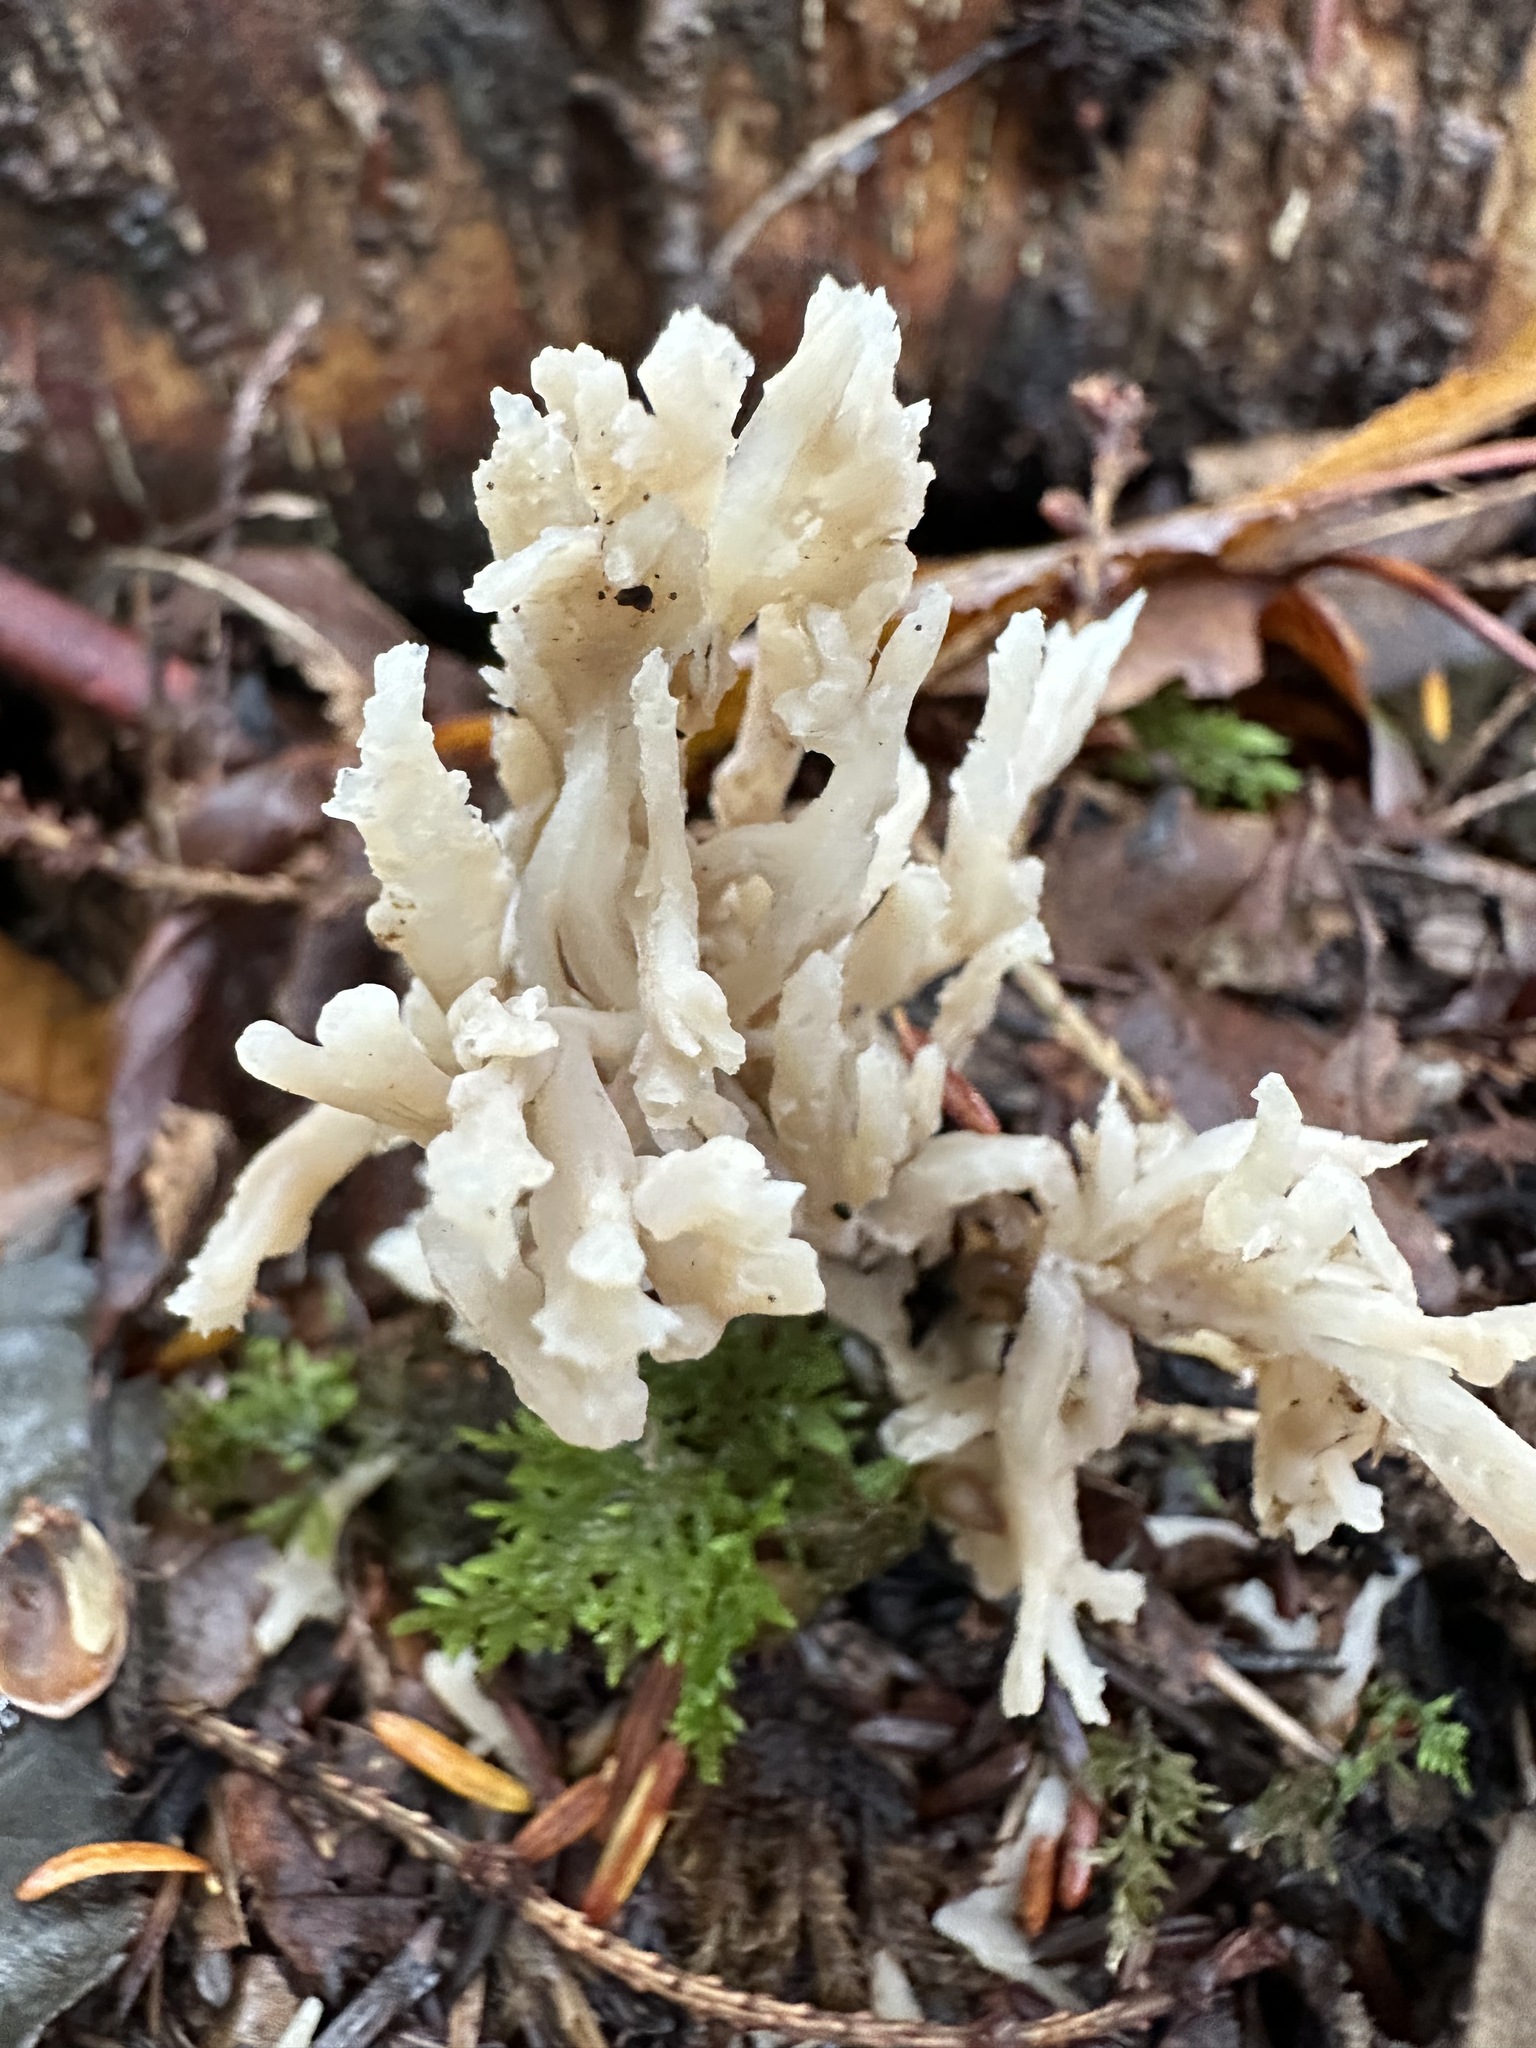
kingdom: Fungi
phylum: Basidiomycota
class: Agaricomycetes
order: Cantharellales
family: Hydnaceae
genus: Clavulina
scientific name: Clavulina coralloides
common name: Crested coral
